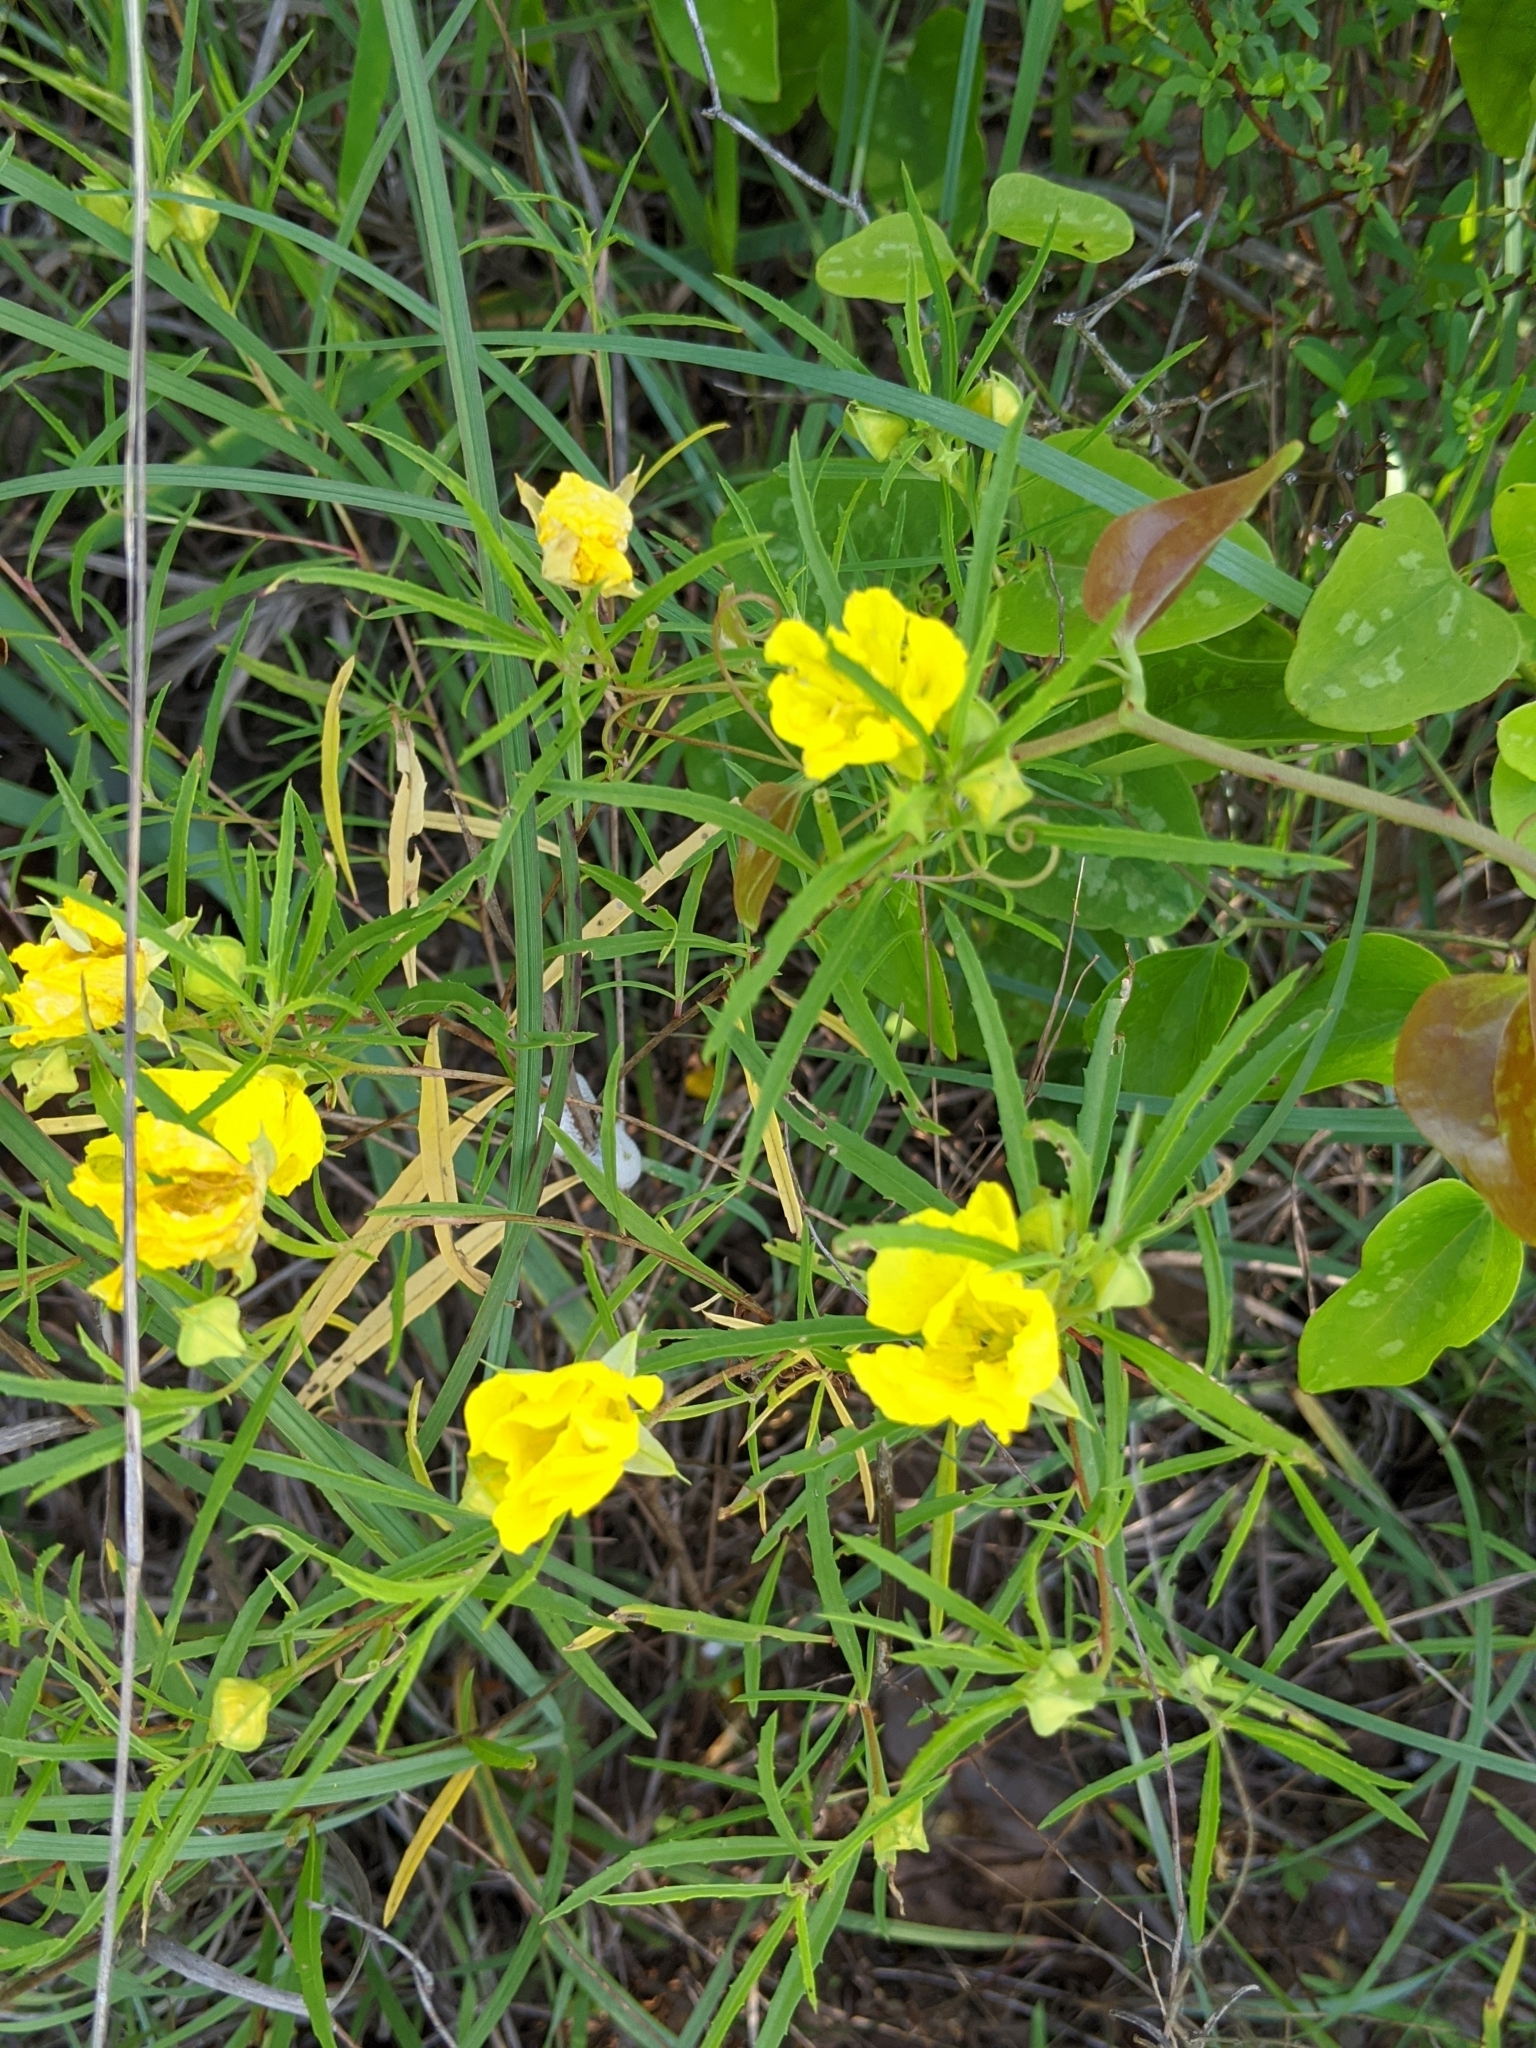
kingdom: Plantae
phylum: Tracheophyta
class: Magnoliopsida
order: Myrtales
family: Onagraceae
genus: Oenothera
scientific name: Oenothera
